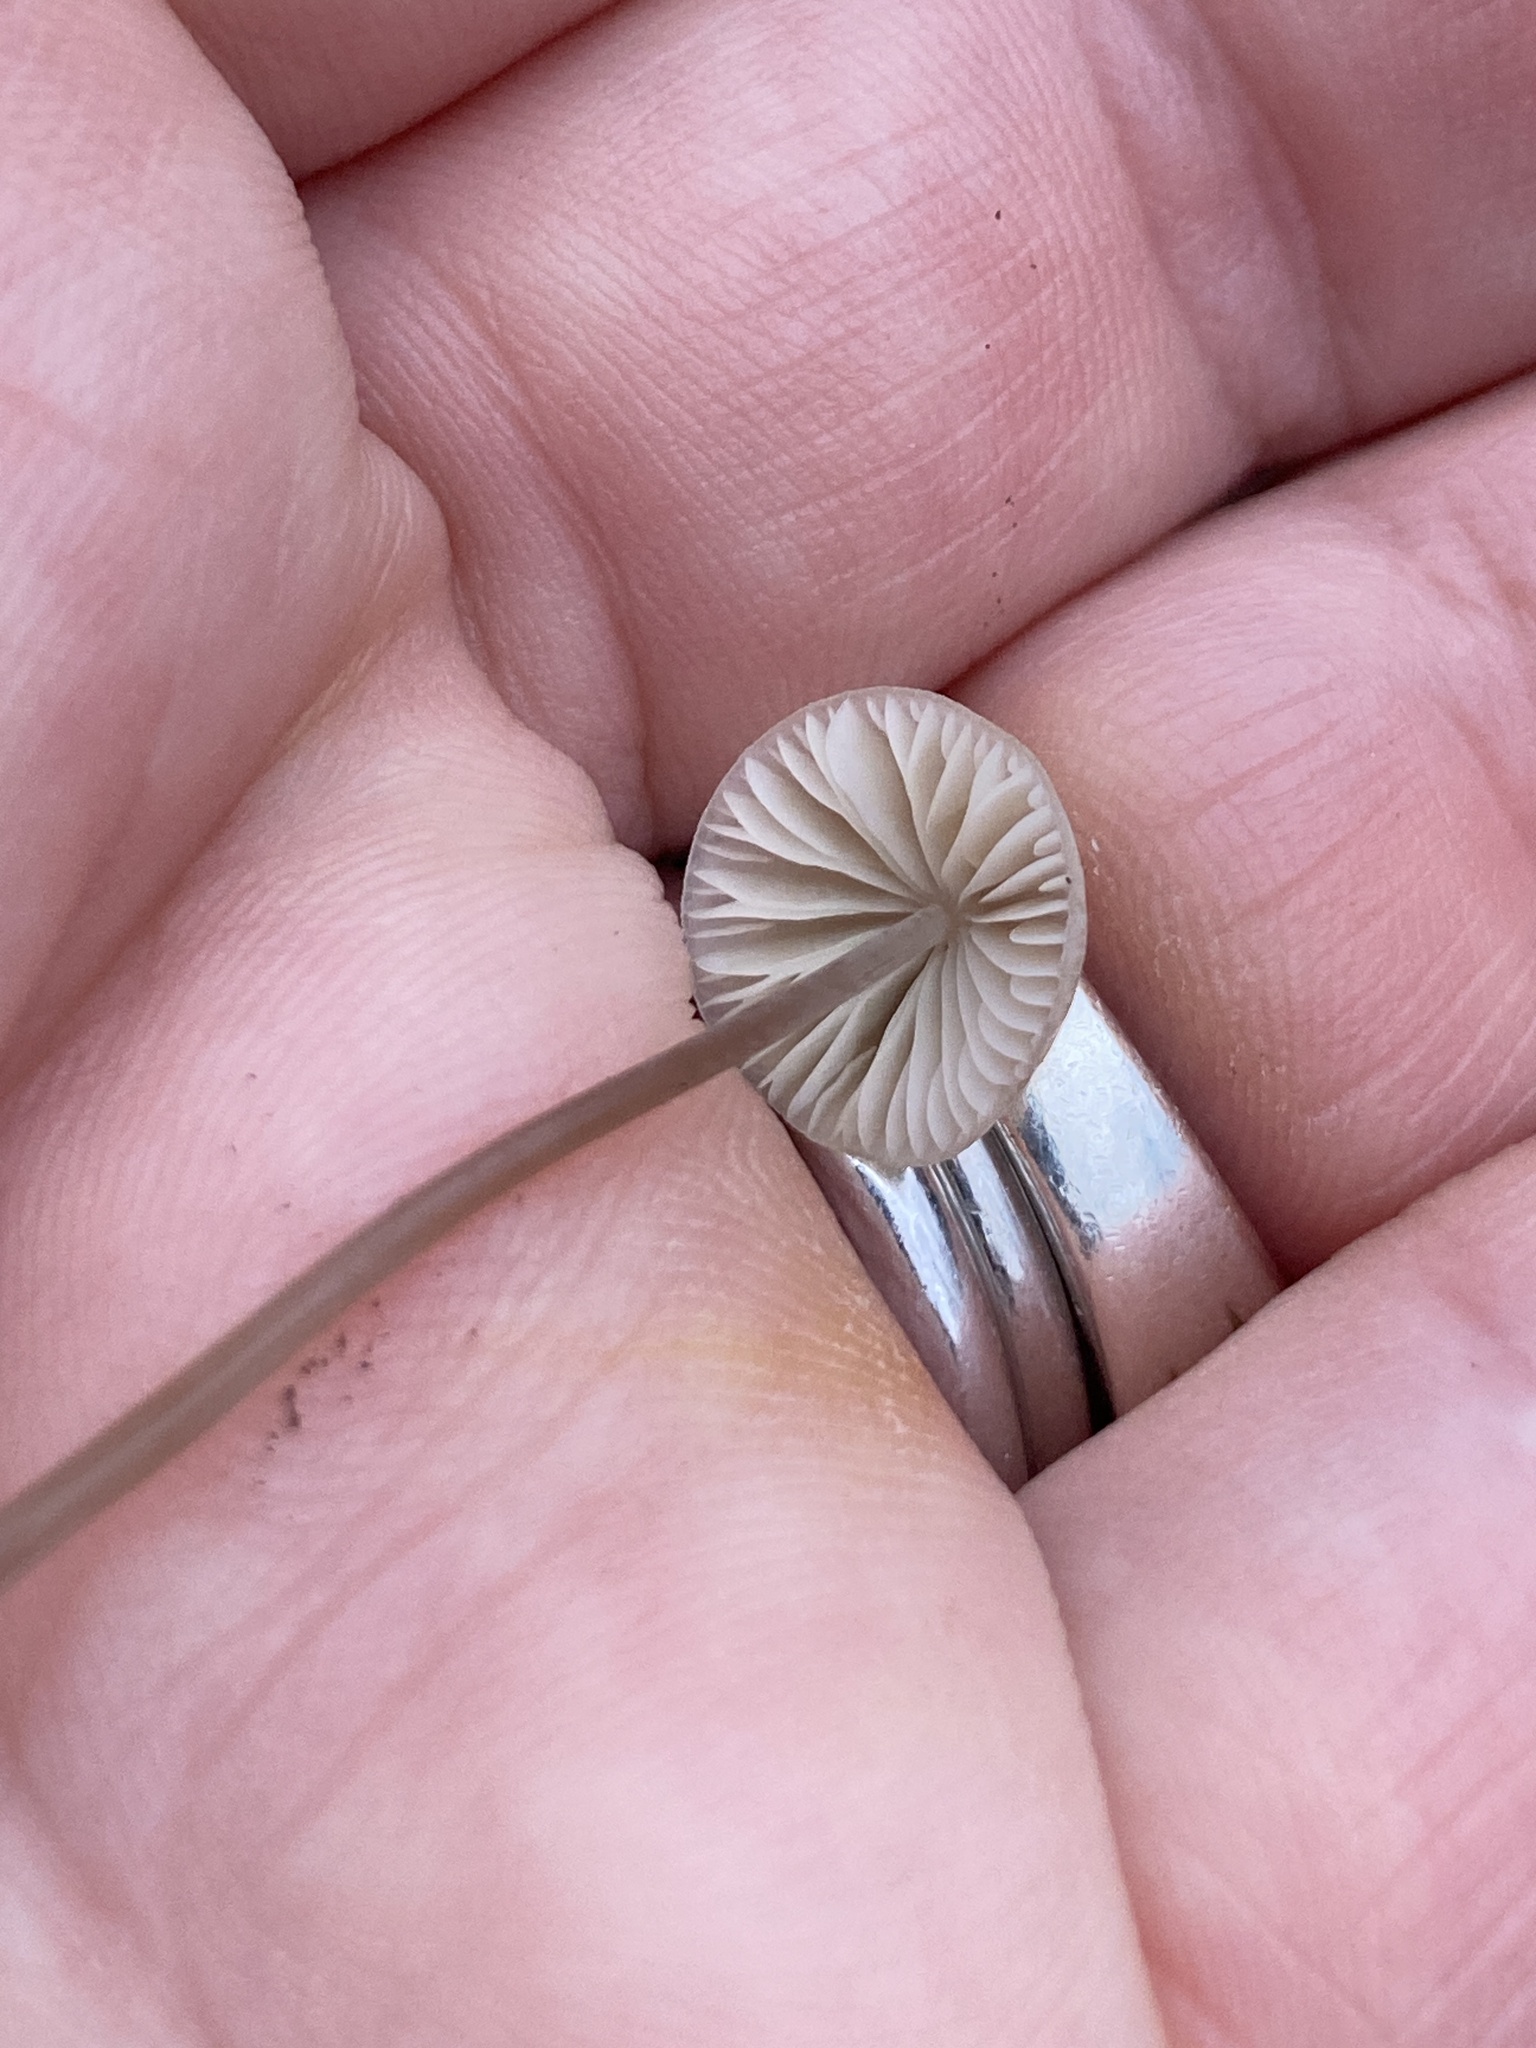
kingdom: Fungi
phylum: Basidiomycota
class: Agaricomycetes
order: Agaricales
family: Mycenaceae
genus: Mycena
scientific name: Mycena leptocephala
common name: Nitrous bonnet
